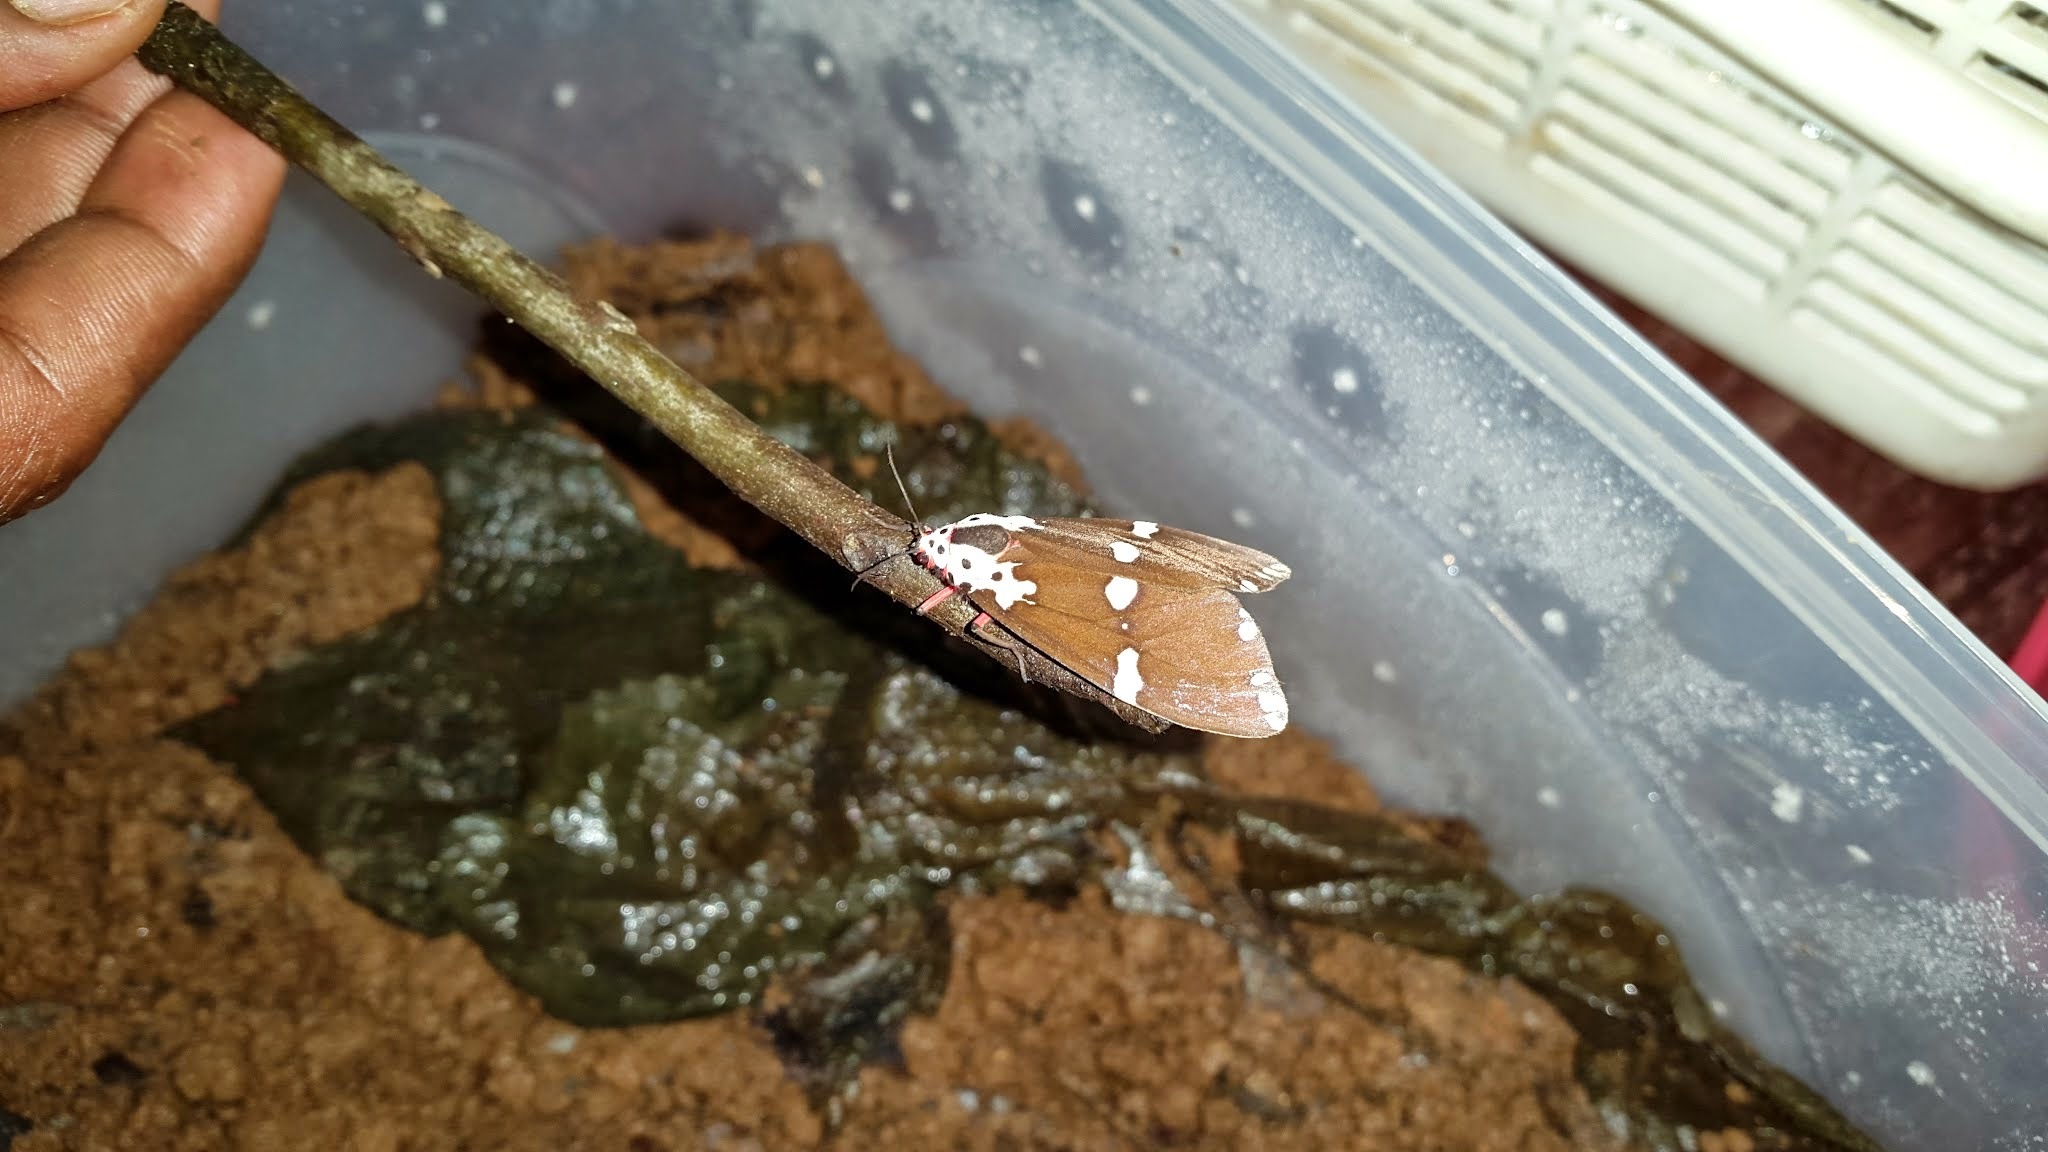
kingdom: Animalia
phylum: Arthropoda
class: Insecta
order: Lepidoptera
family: Erebidae
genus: Pericallia
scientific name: Pericallia
